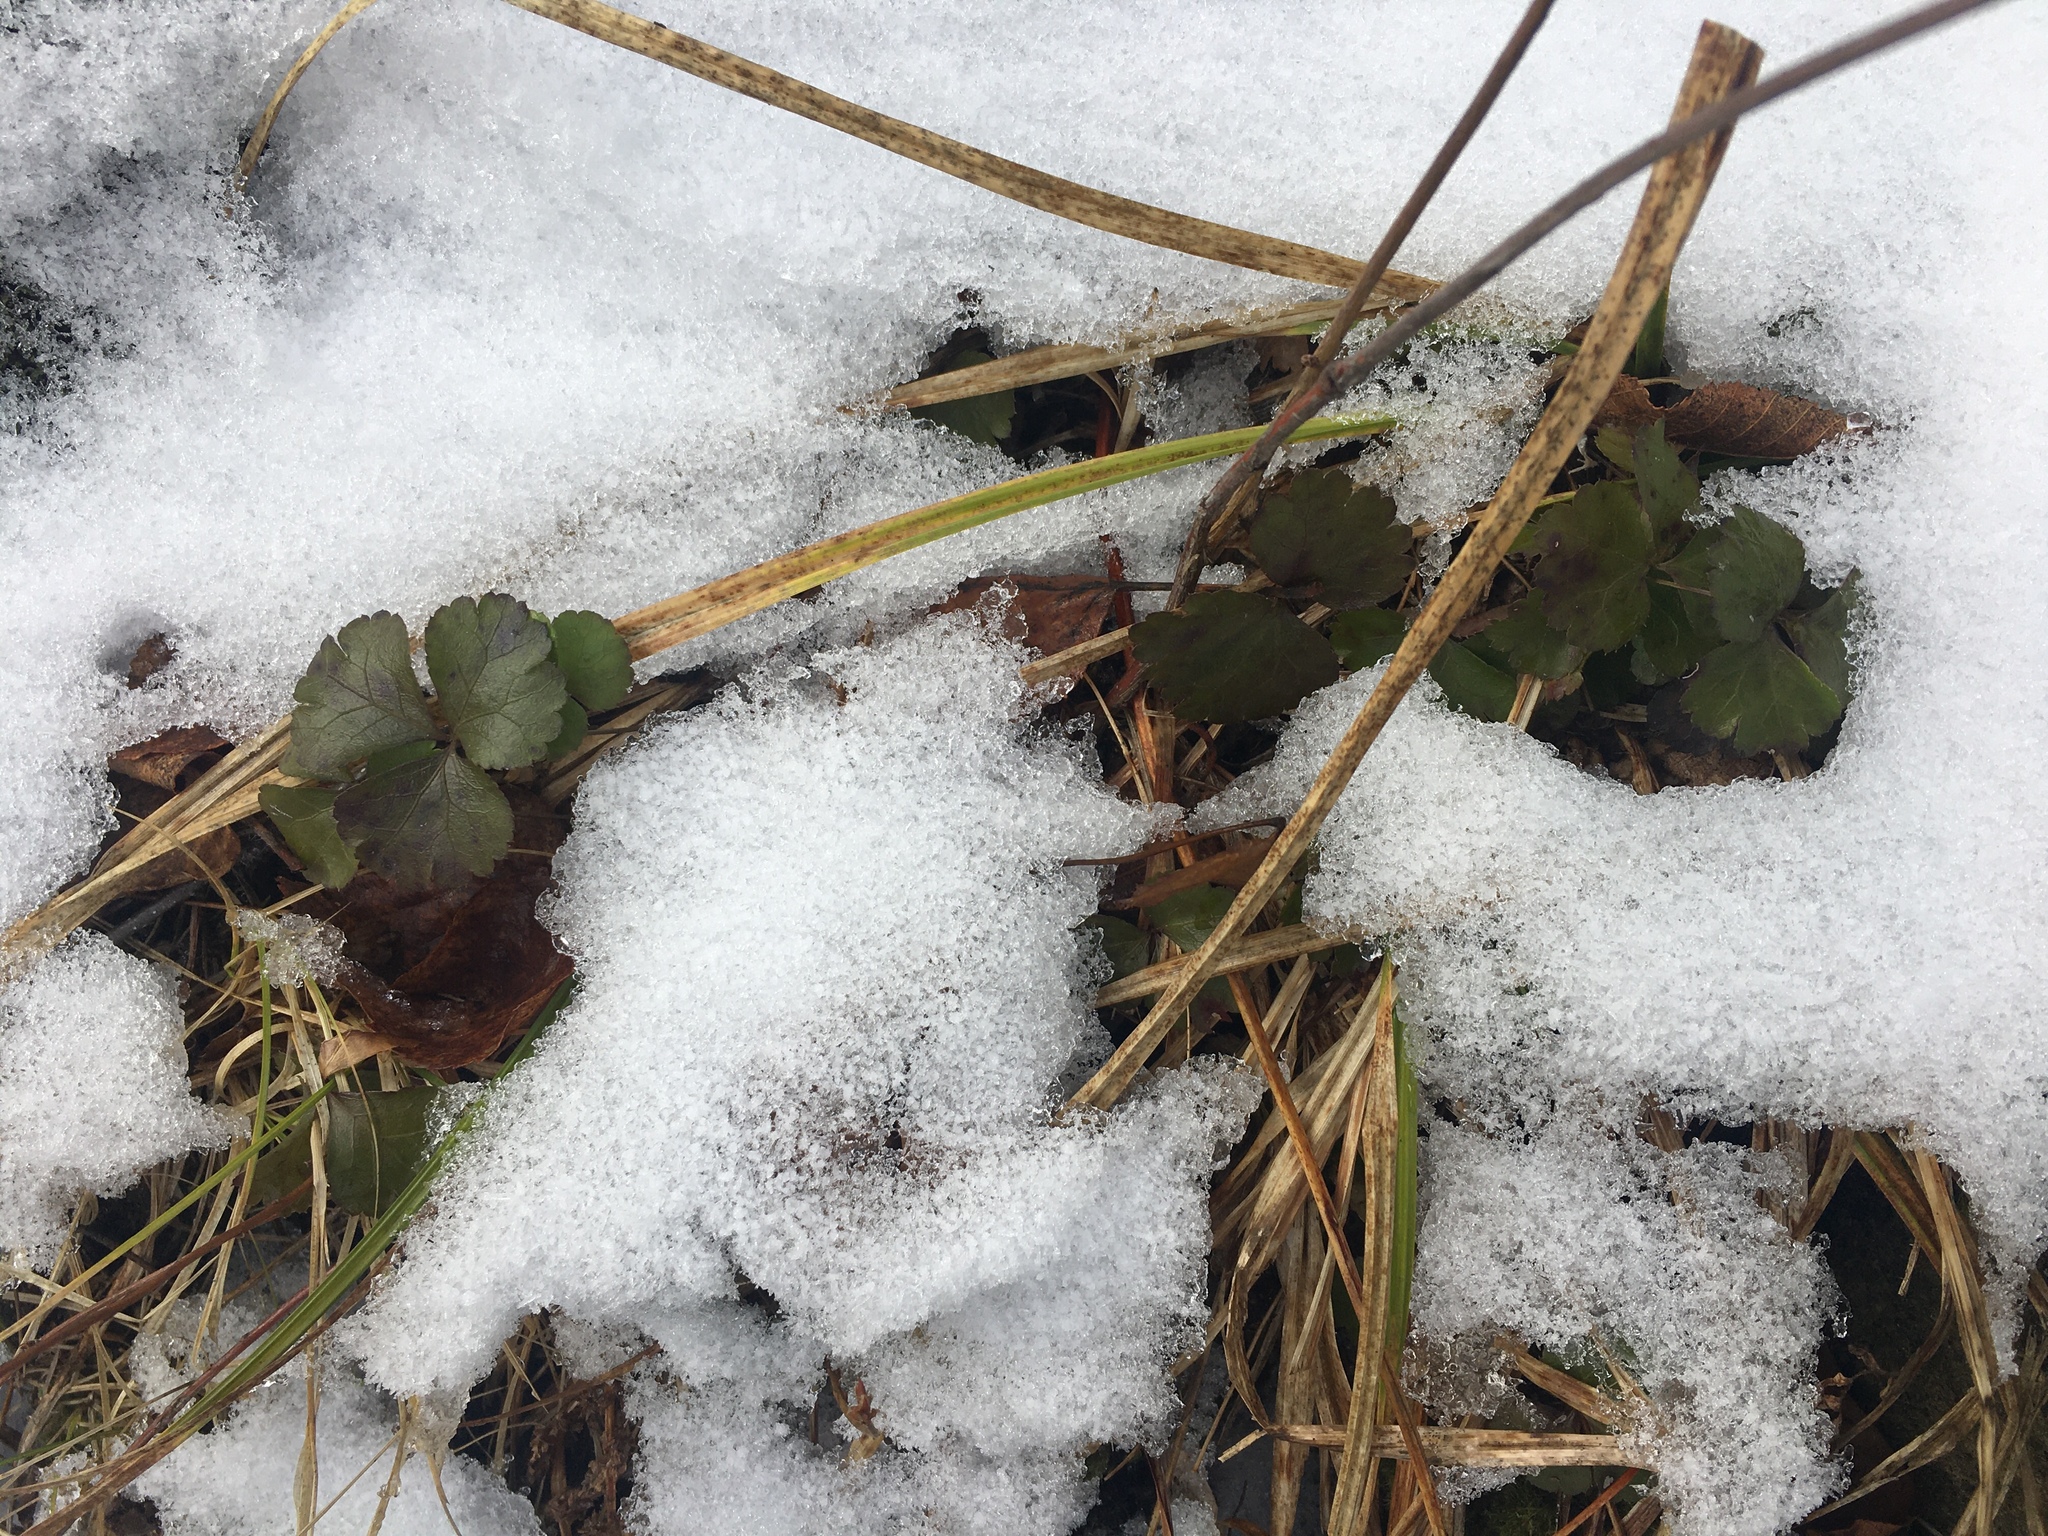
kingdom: Plantae
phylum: Tracheophyta
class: Magnoliopsida
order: Ranunculales
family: Ranunculaceae
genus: Coptis
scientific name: Coptis trifolia
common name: Canker-root
